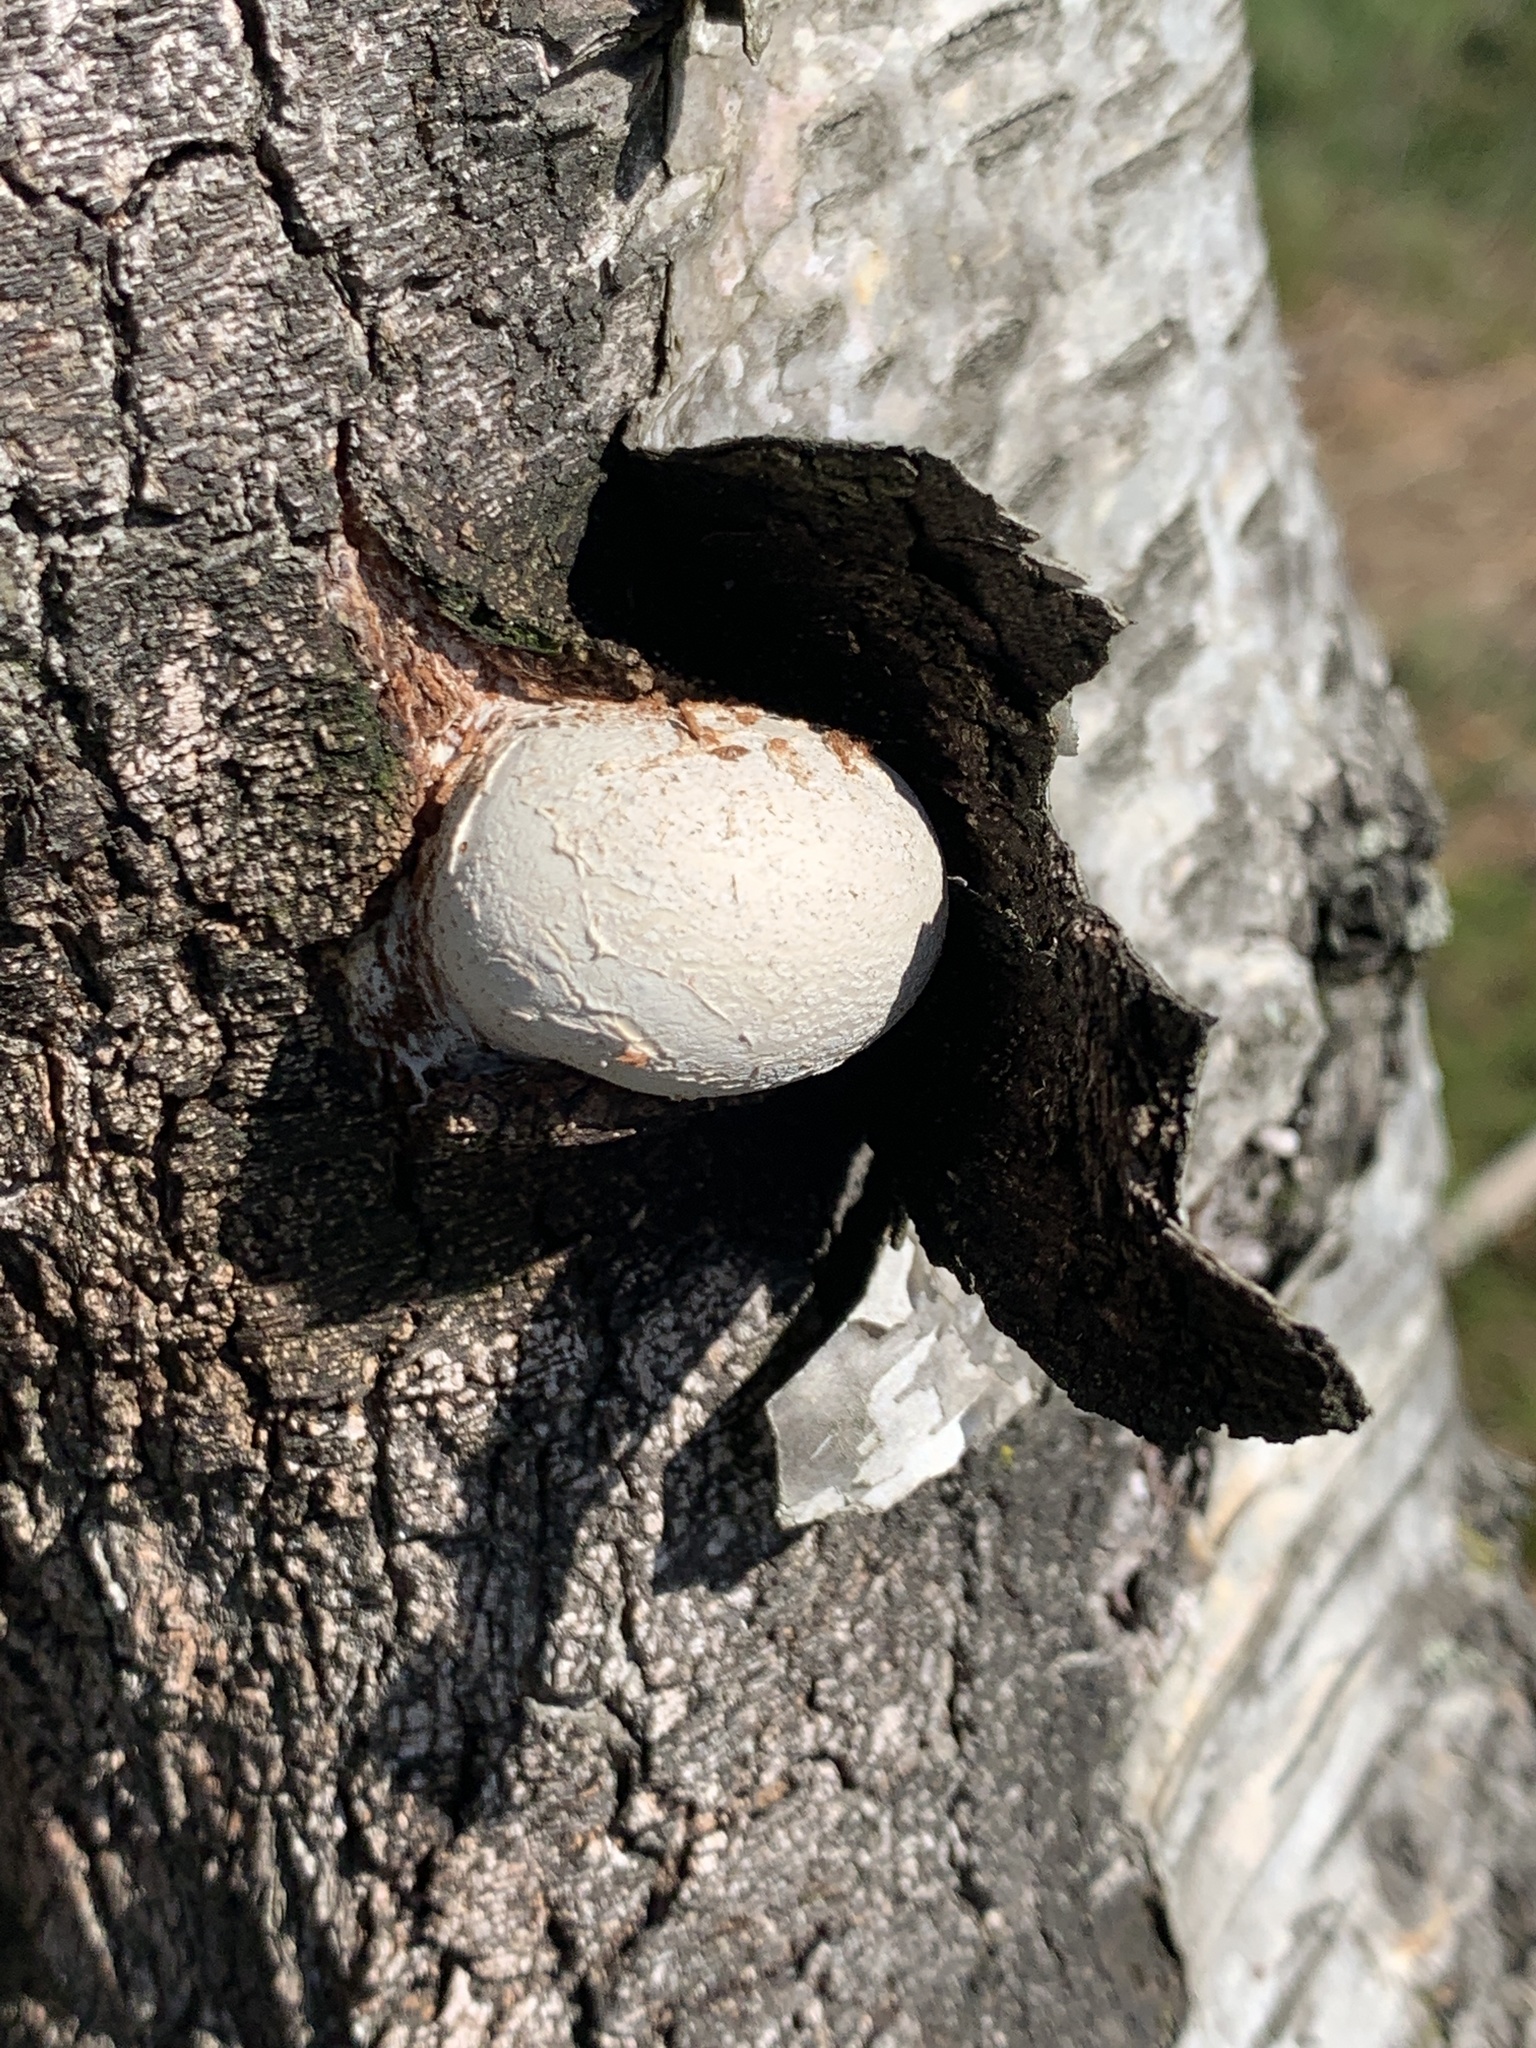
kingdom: Fungi
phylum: Basidiomycota
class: Agaricomycetes
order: Polyporales
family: Fomitopsidaceae
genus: Fomitopsis
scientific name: Fomitopsis betulina
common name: Birch polypore
